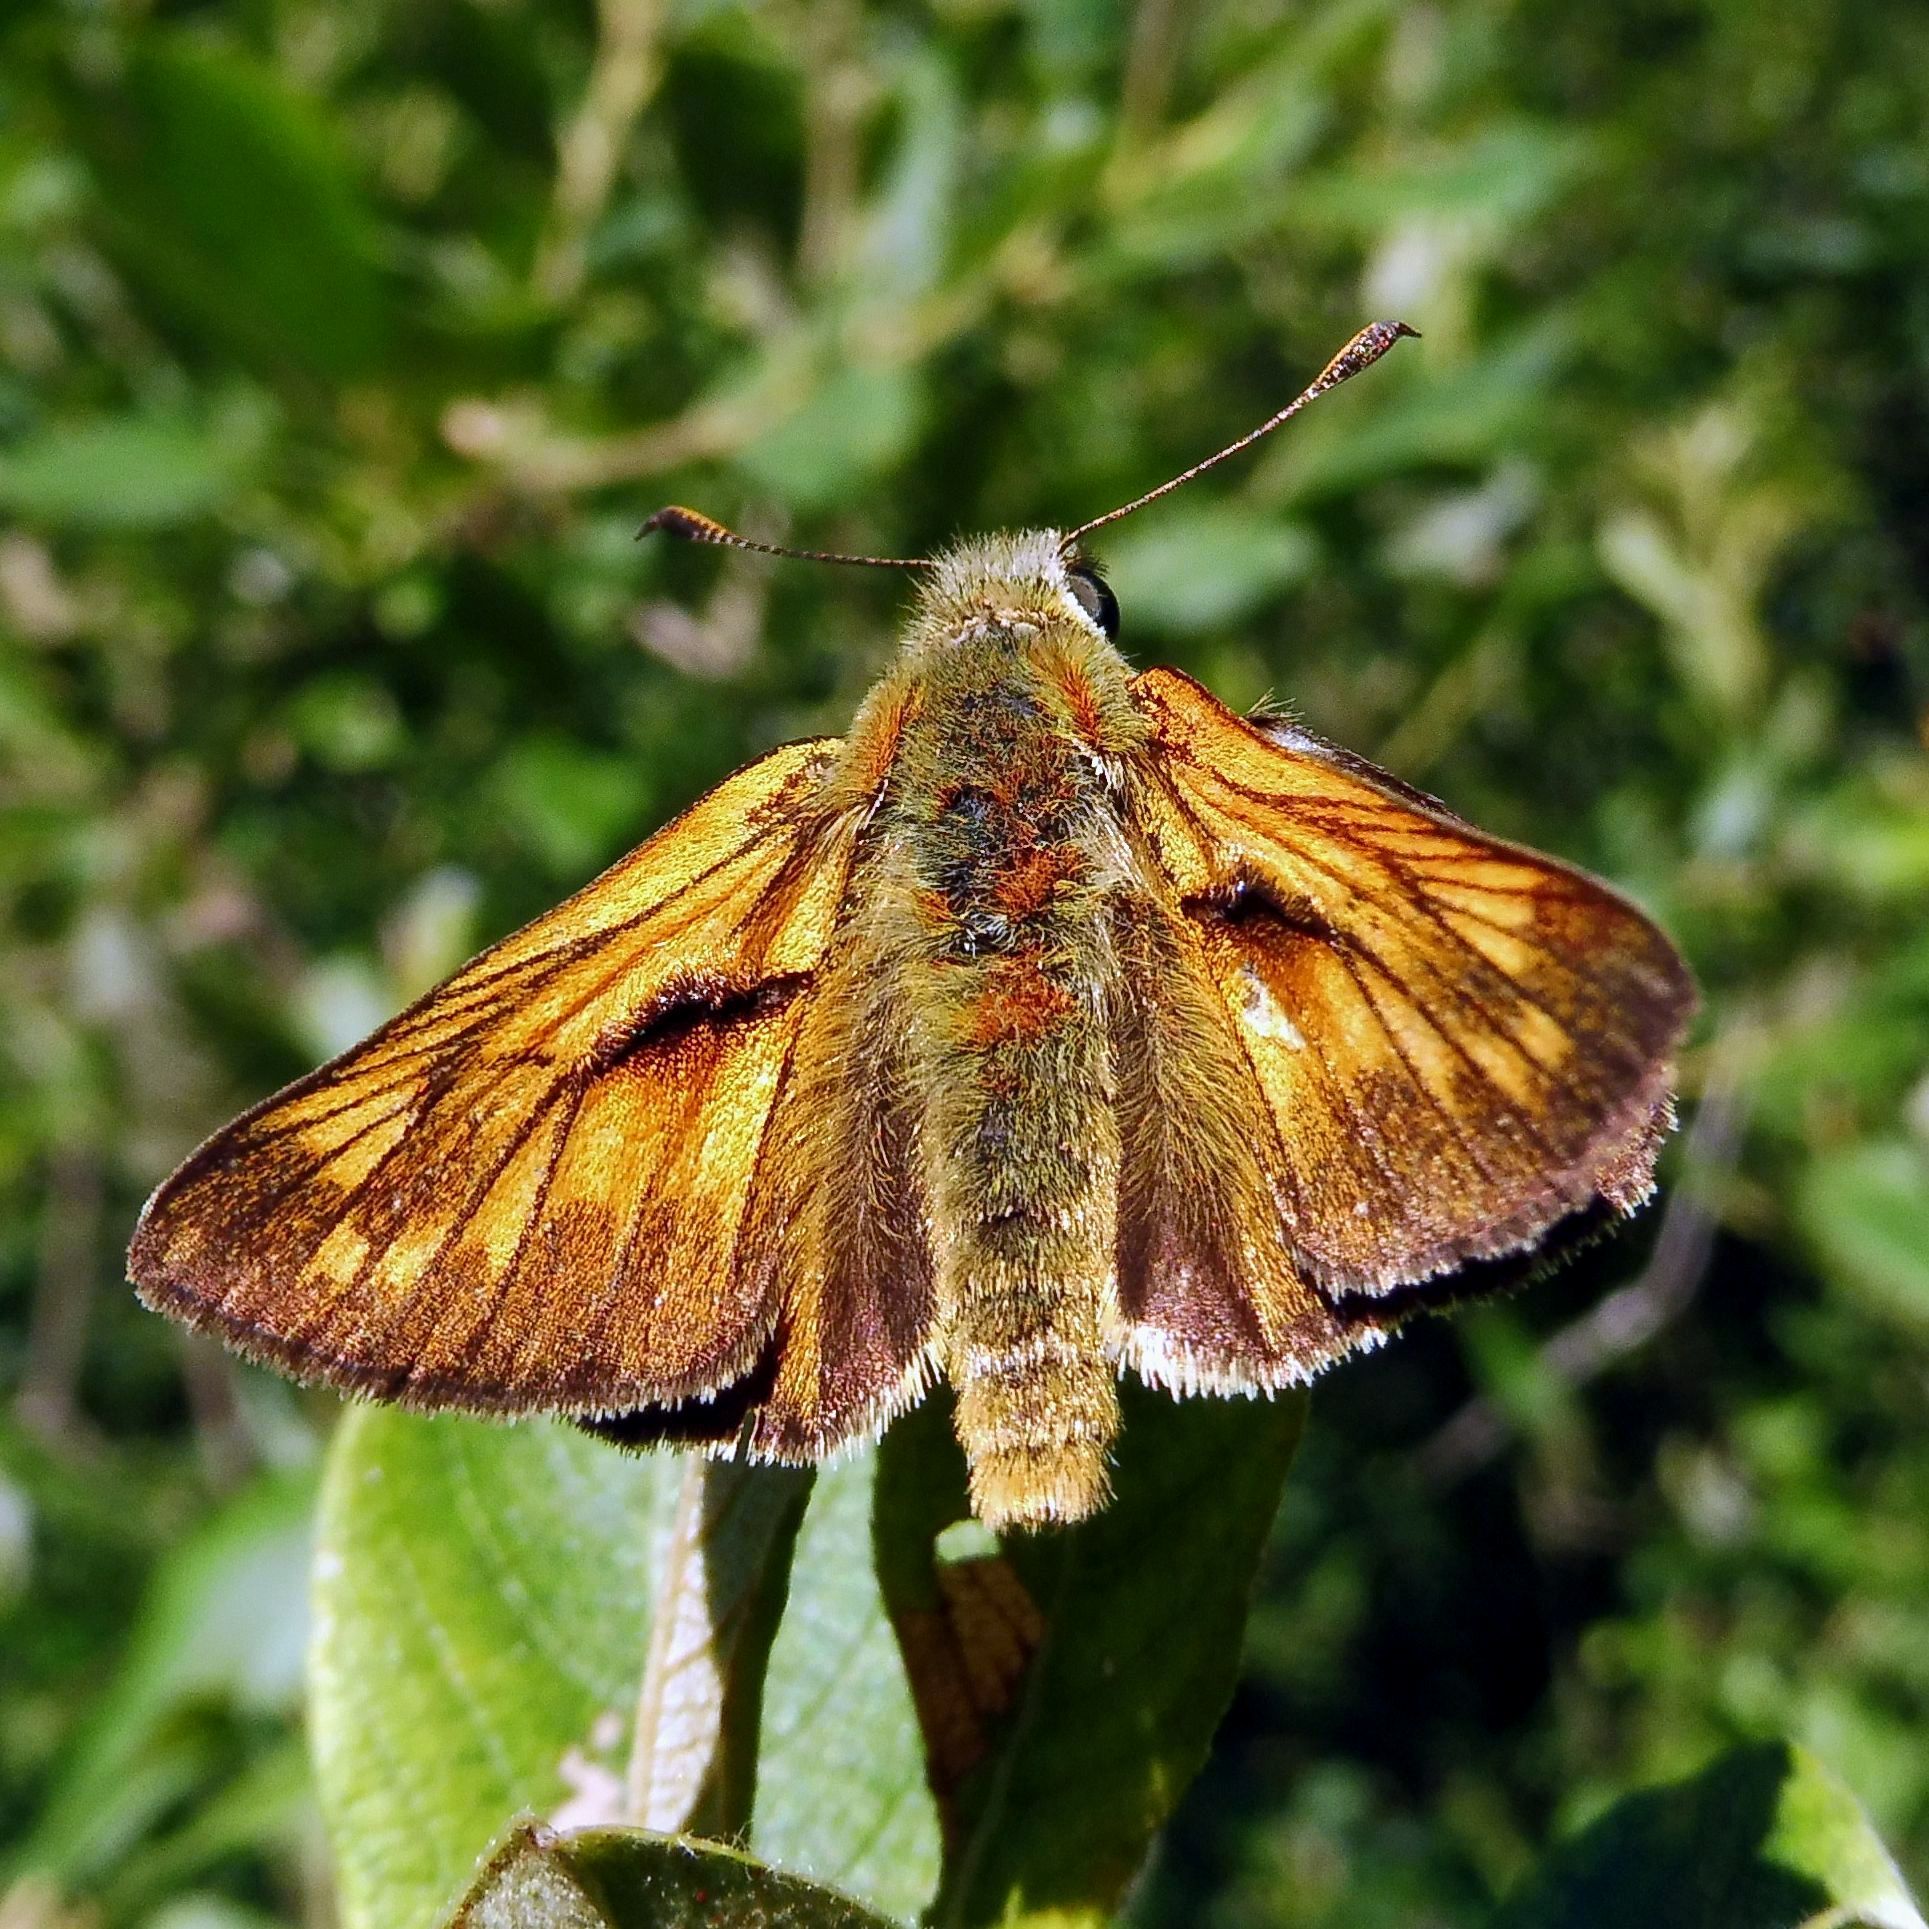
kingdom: Animalia
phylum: Arthropoda
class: Insecta
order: Lepidoptera
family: Hesperiidae
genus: Ochlodes
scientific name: Ochlodes venata
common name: Large skipper
